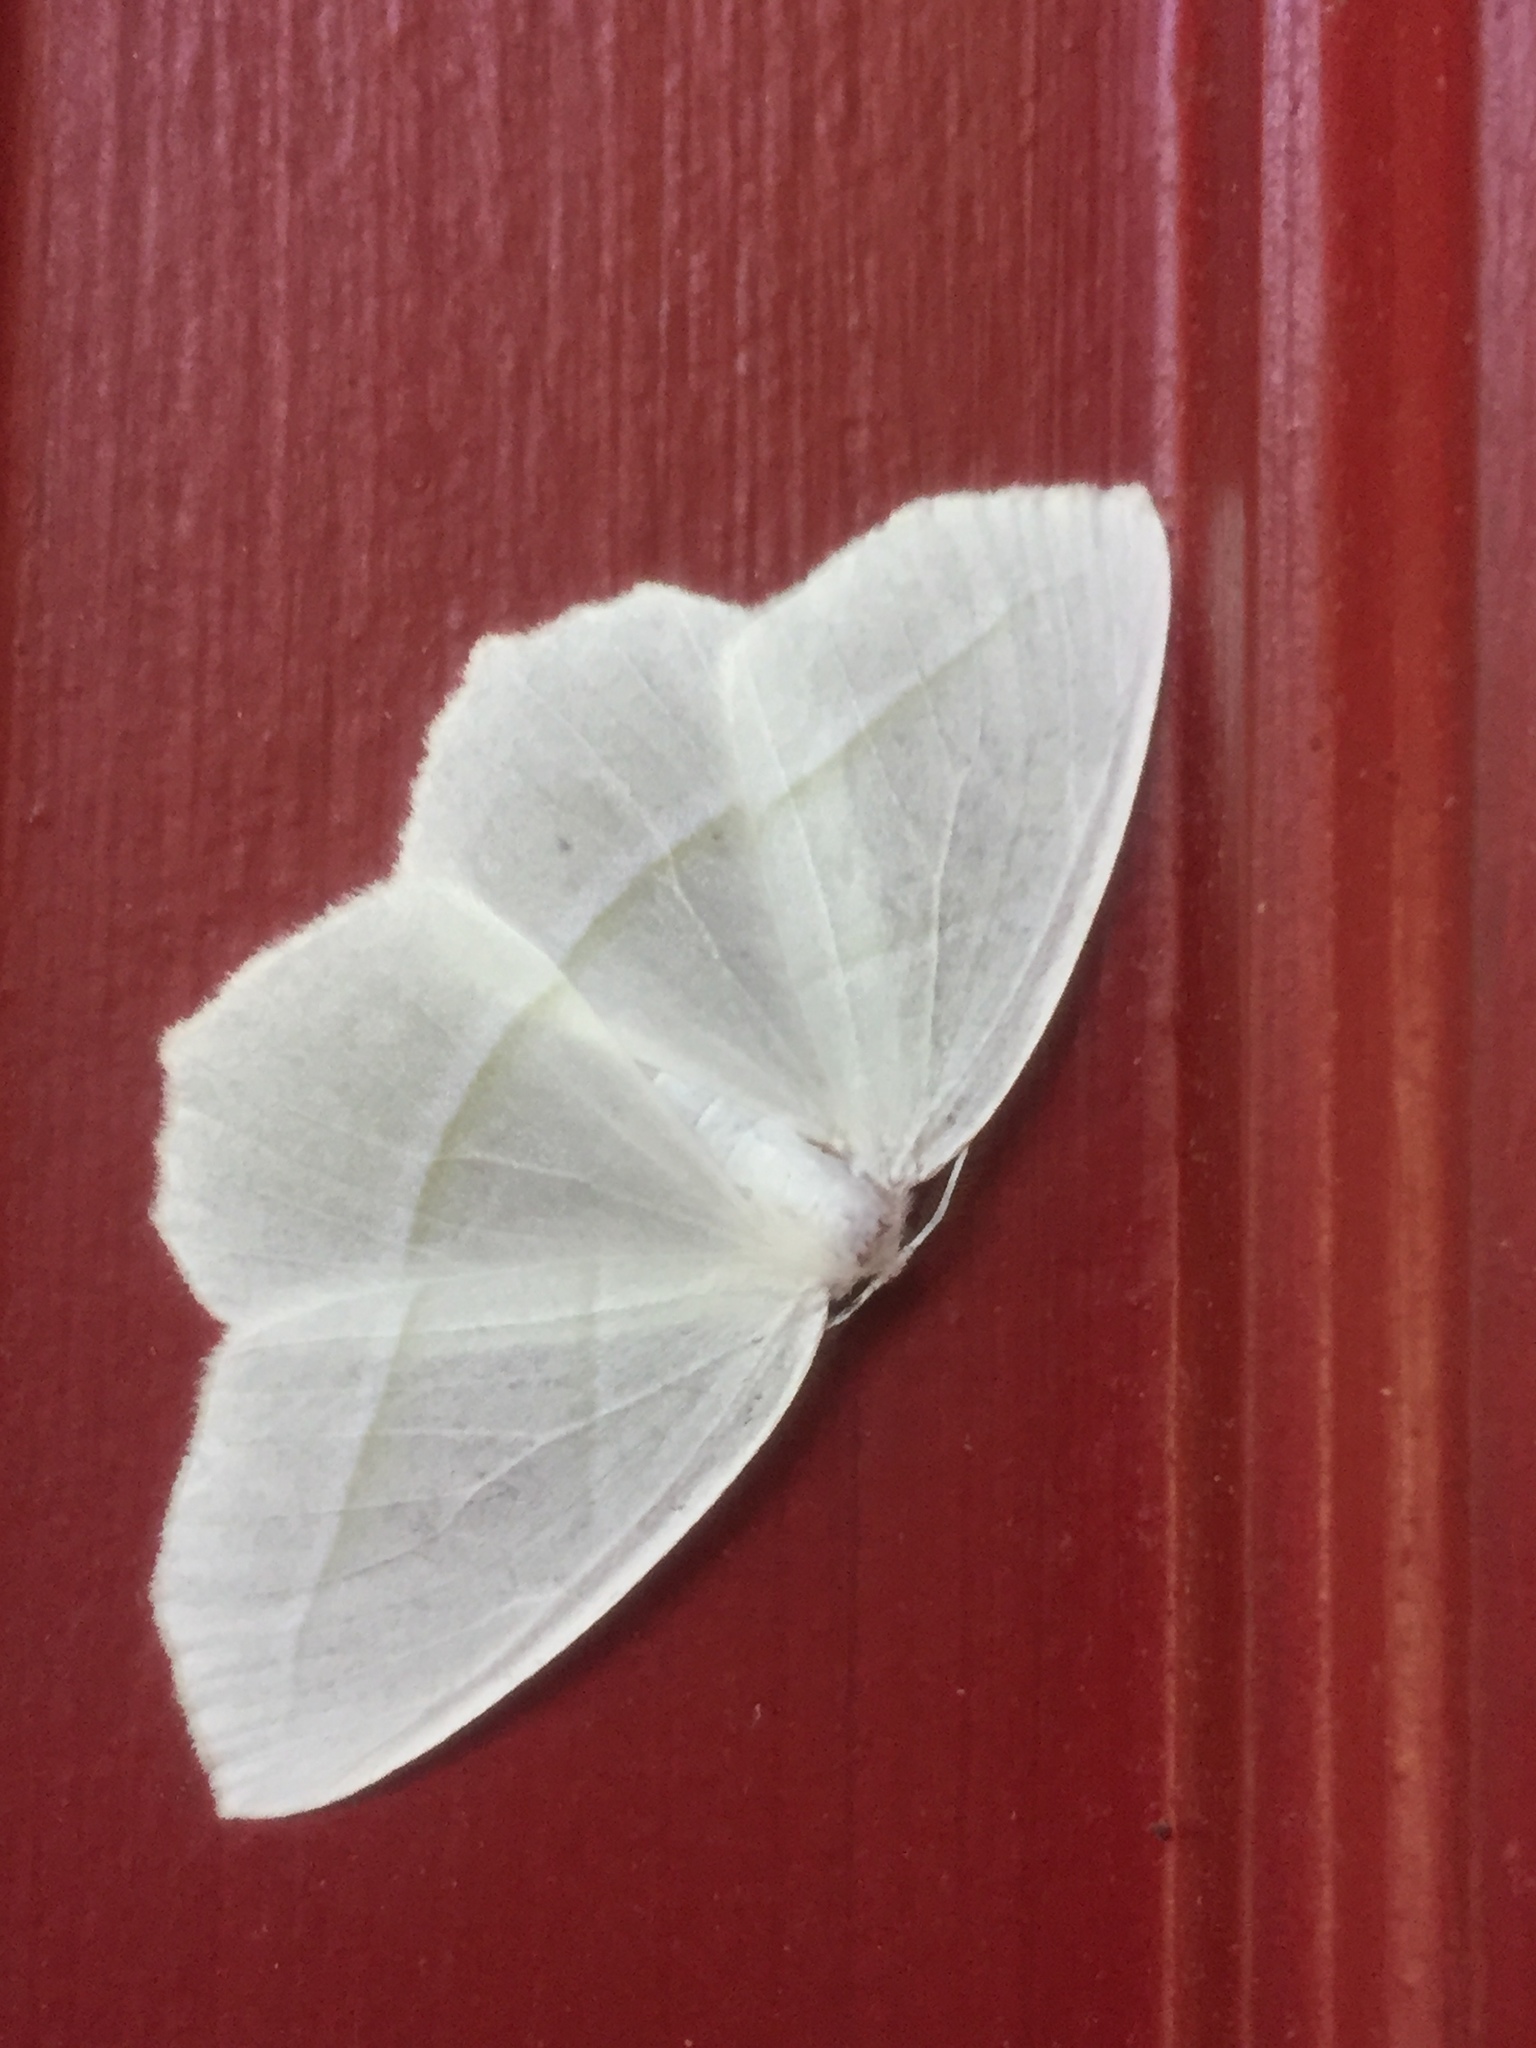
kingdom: Animalia
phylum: Arthropoda
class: Insecta
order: Lepidoptera
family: Geometridae
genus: Campaea
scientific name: Campaea perlata
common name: Fringed looper
